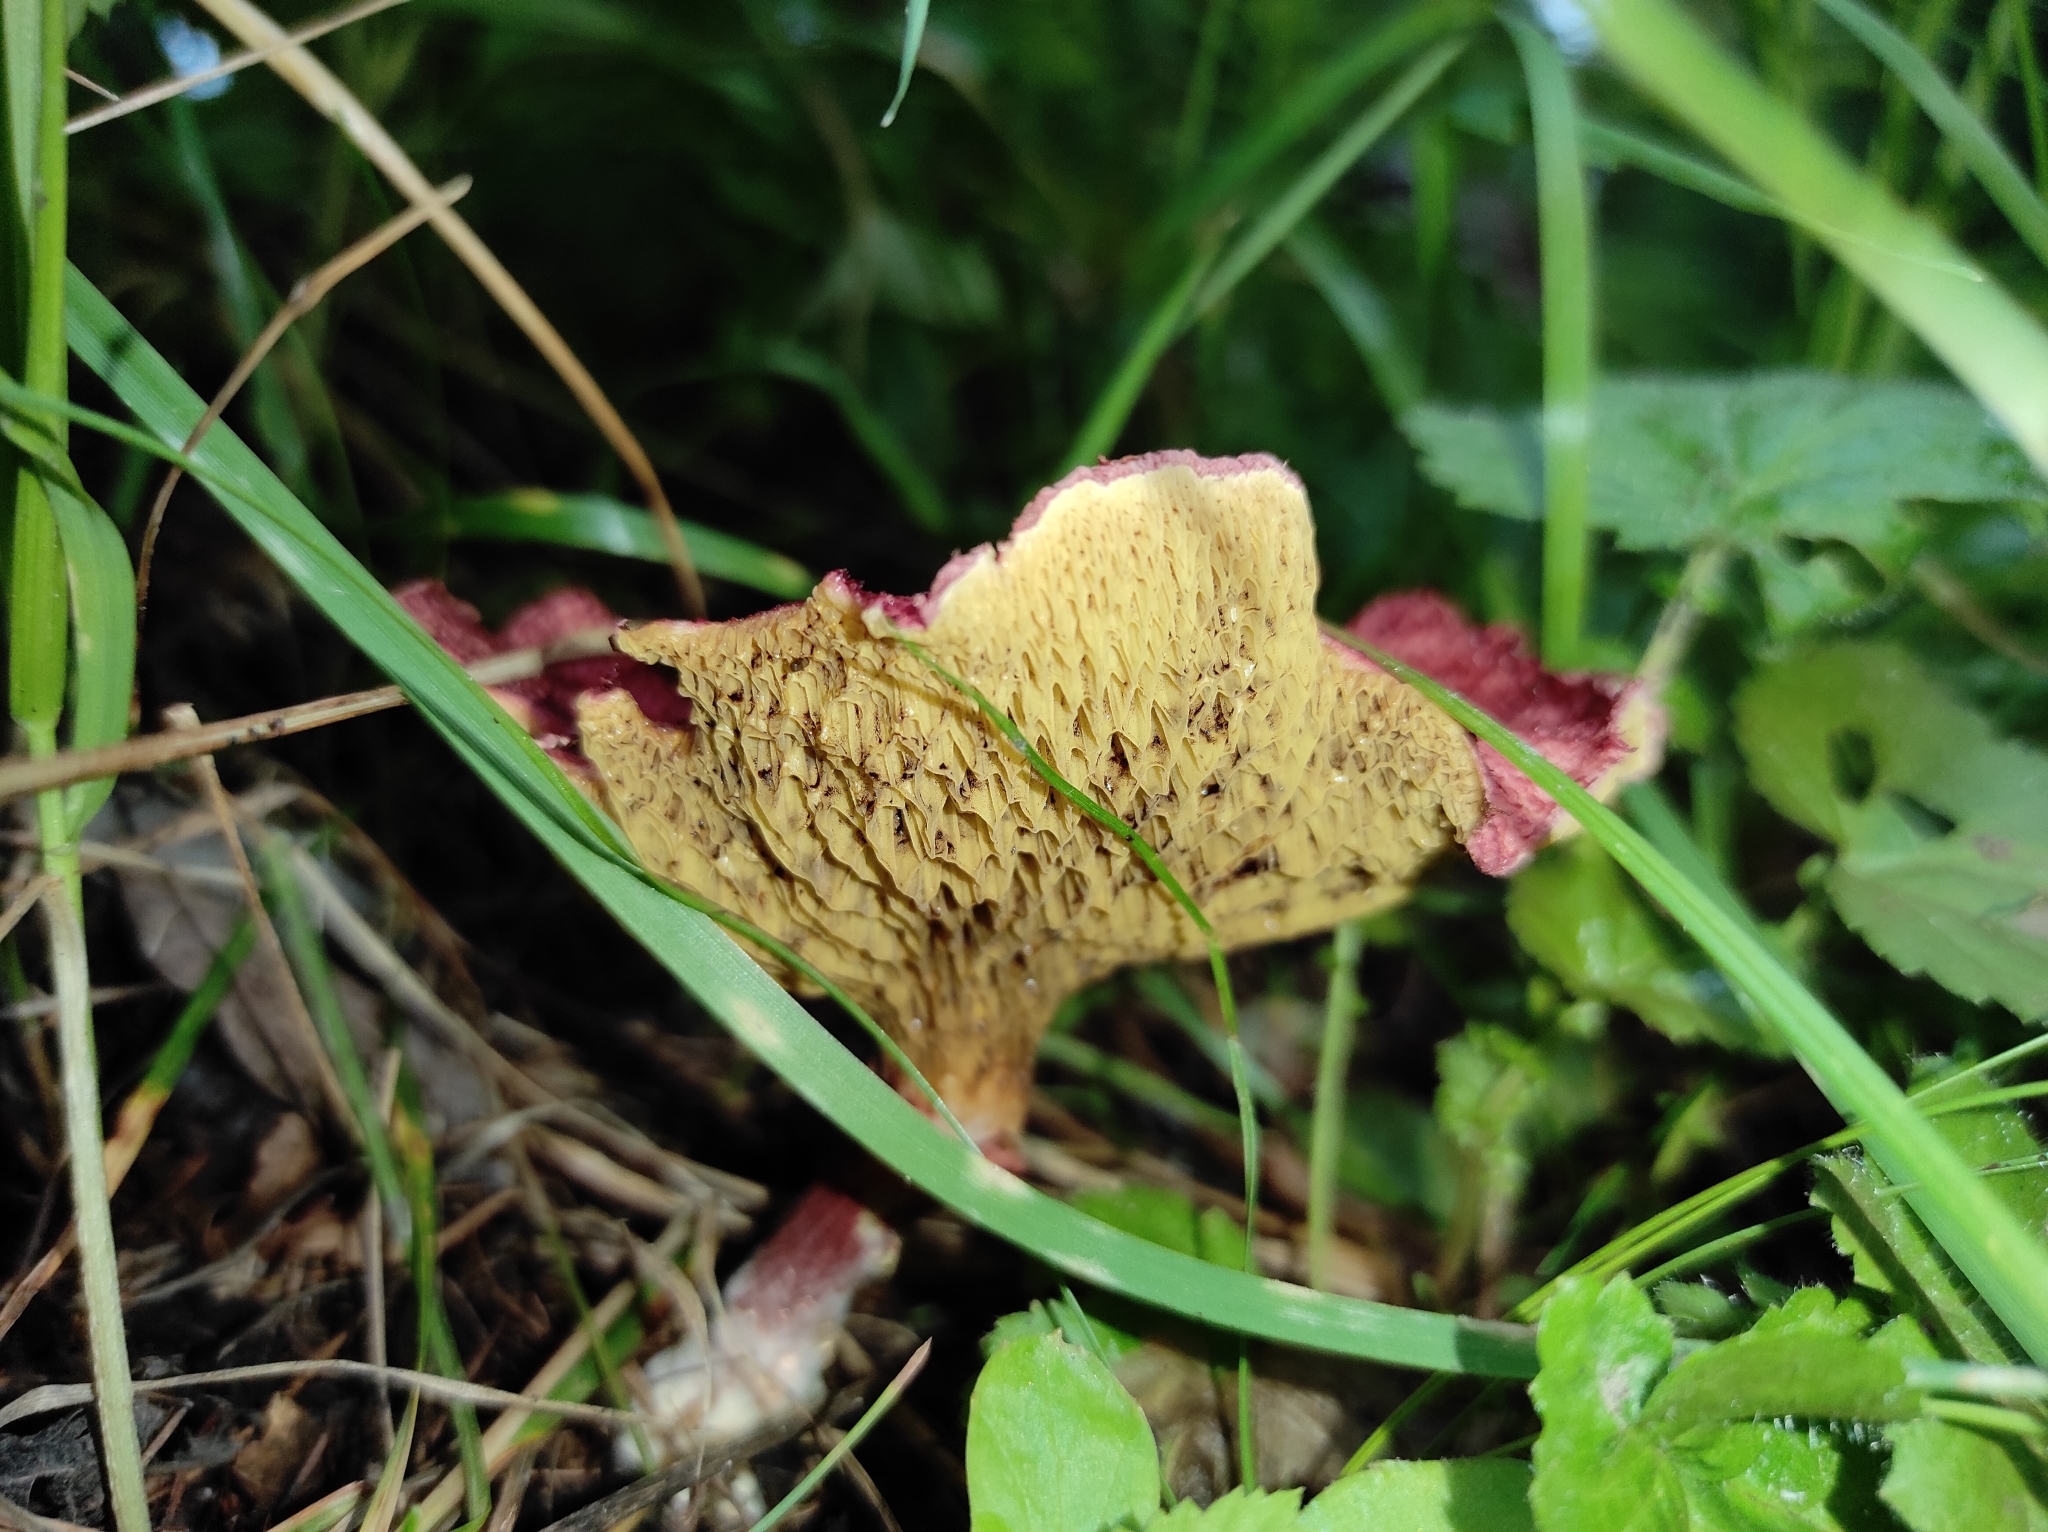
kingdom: Fungi
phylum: Basidiomycota
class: Agaricomycetes
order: Boletales
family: Suillaceae
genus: Boletinus
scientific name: Boletinus asiaticus
